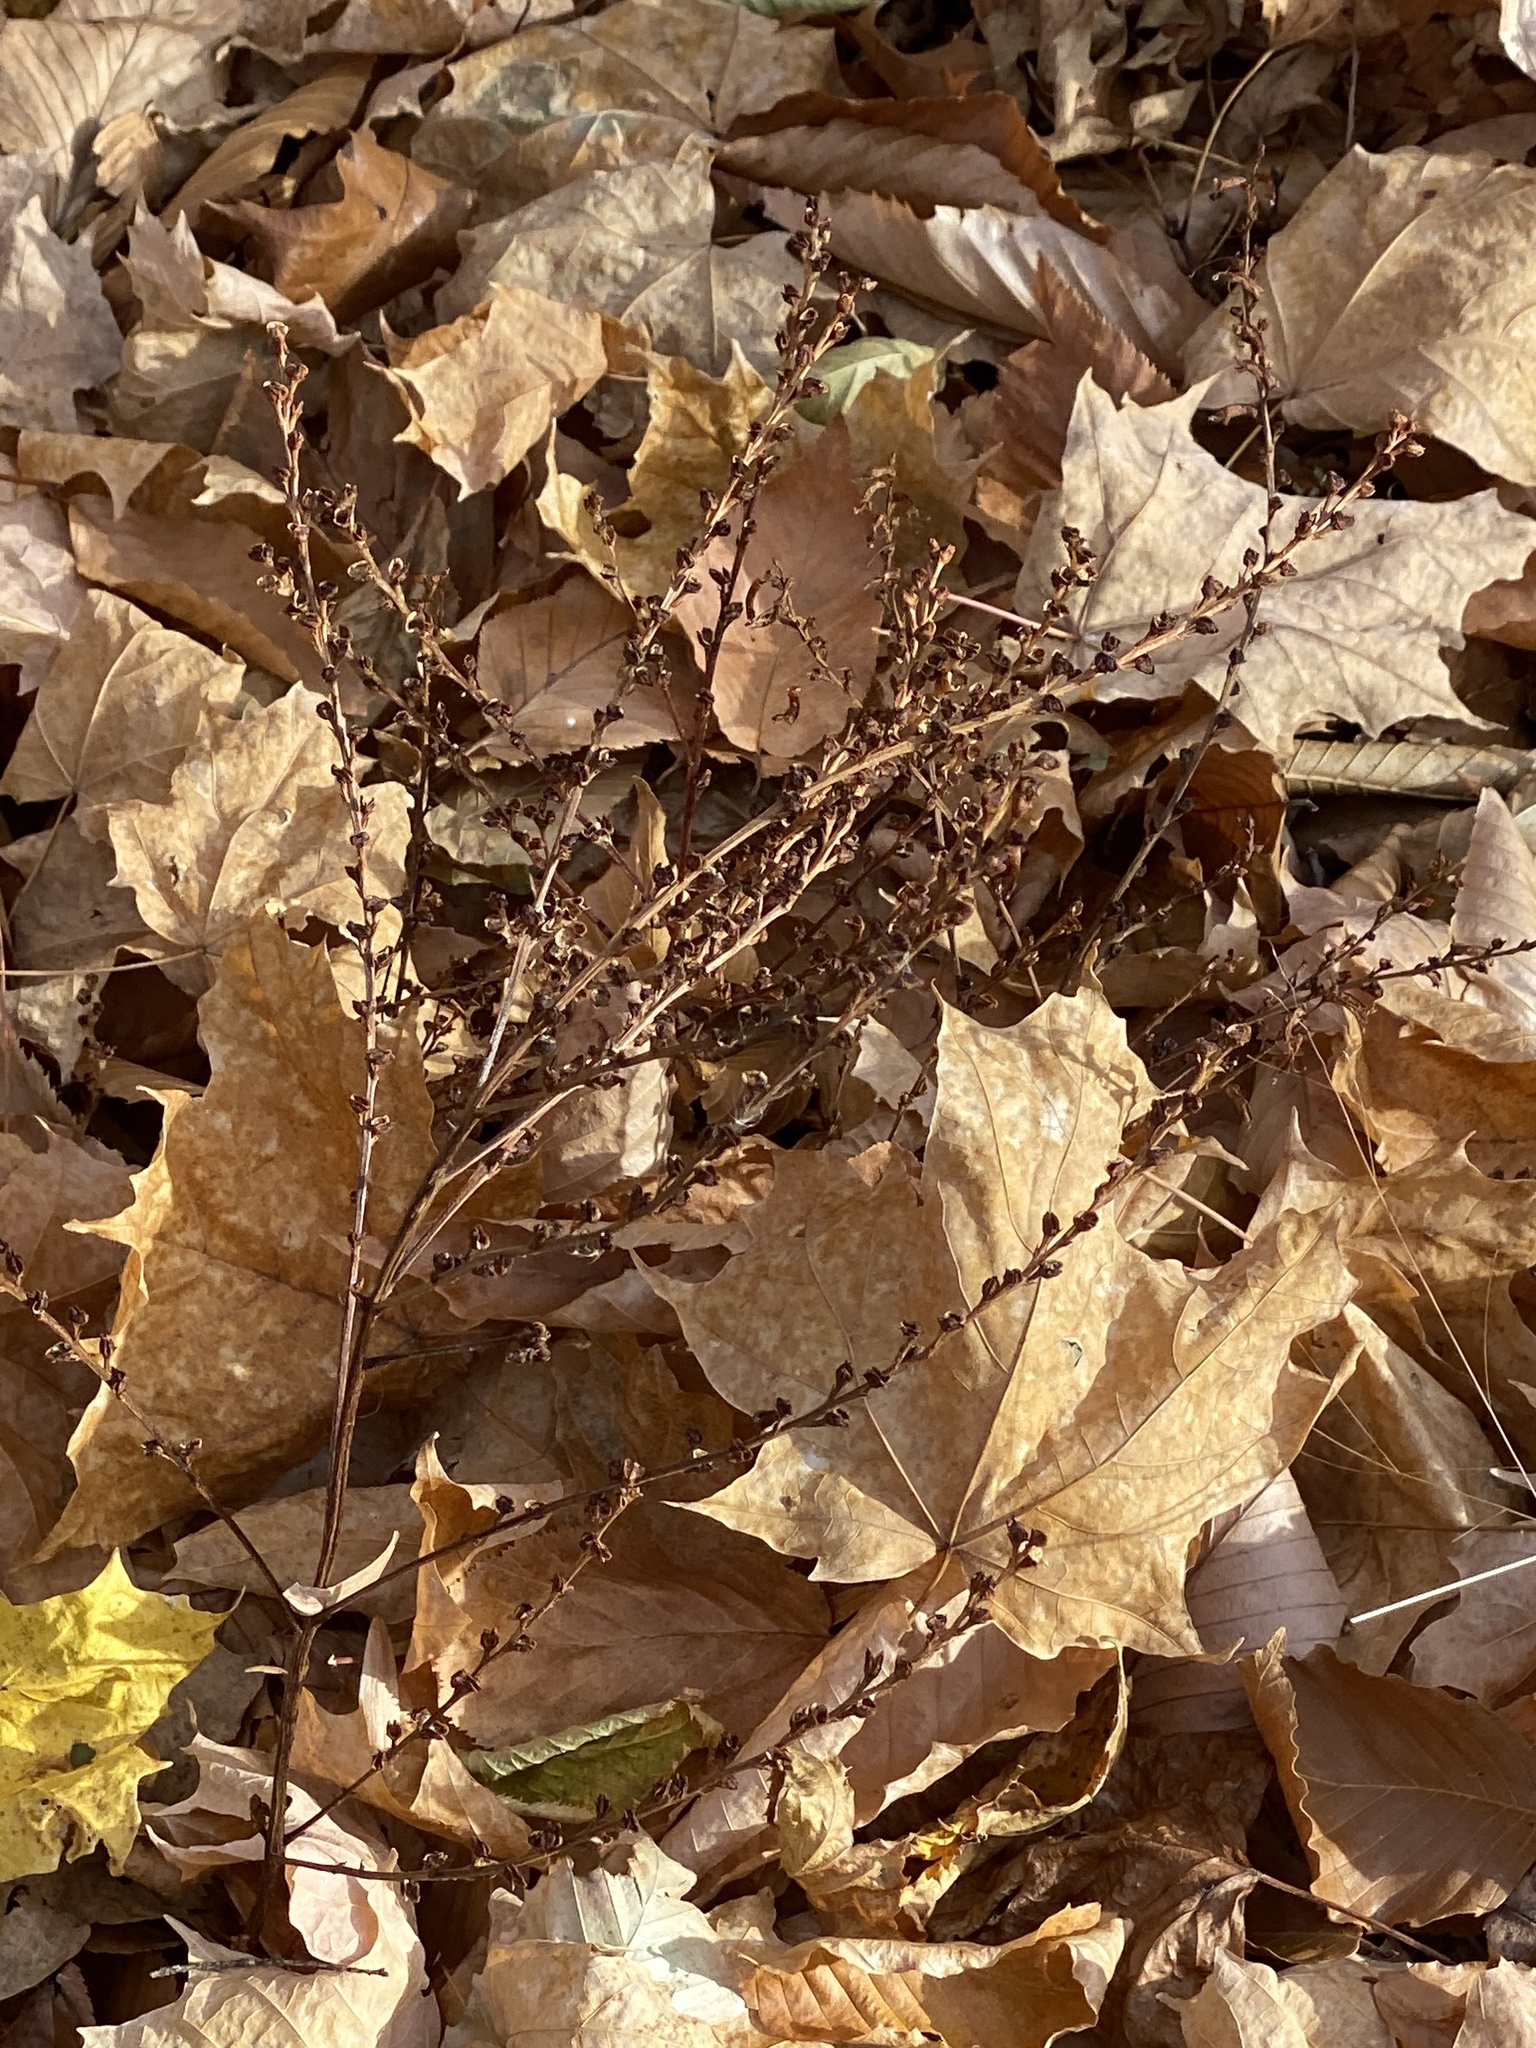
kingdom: Plantae
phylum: Tracheophyta
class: Magnoliopsida
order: Lamiales
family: Orobanchaceae
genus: Epifagus
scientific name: Epifagus virginiana
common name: Beechdrops
